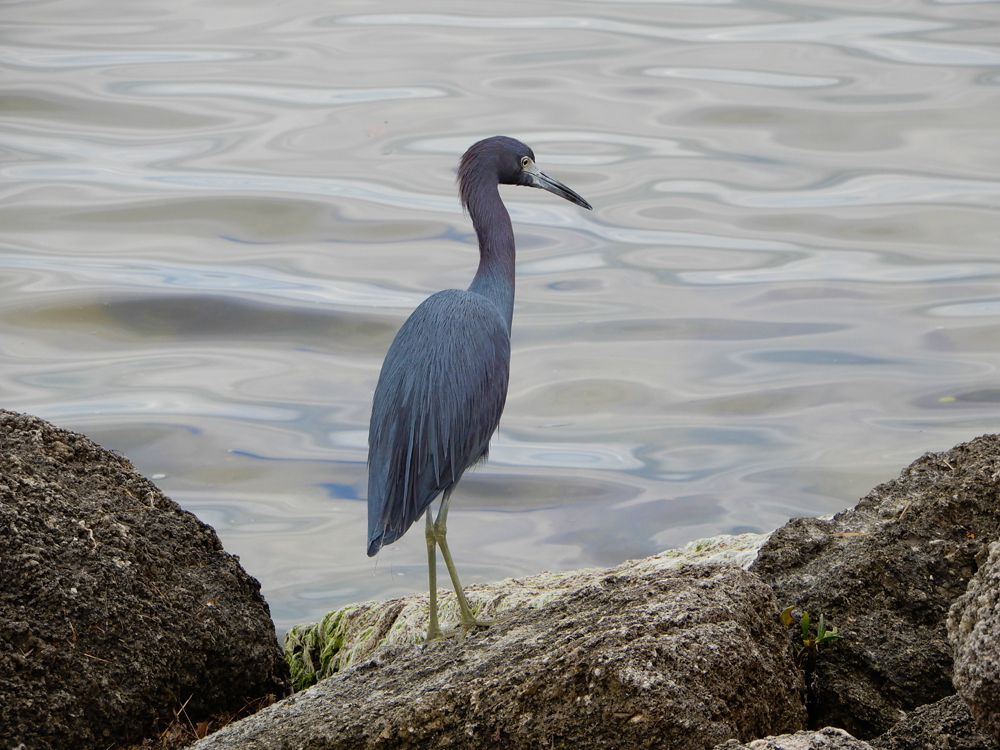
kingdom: Animalia
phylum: Chordata
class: Aves
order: Pelecaniformes
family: Ardeidae
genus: Egretta
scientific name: Egretta caerulea
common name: Little blue heron
